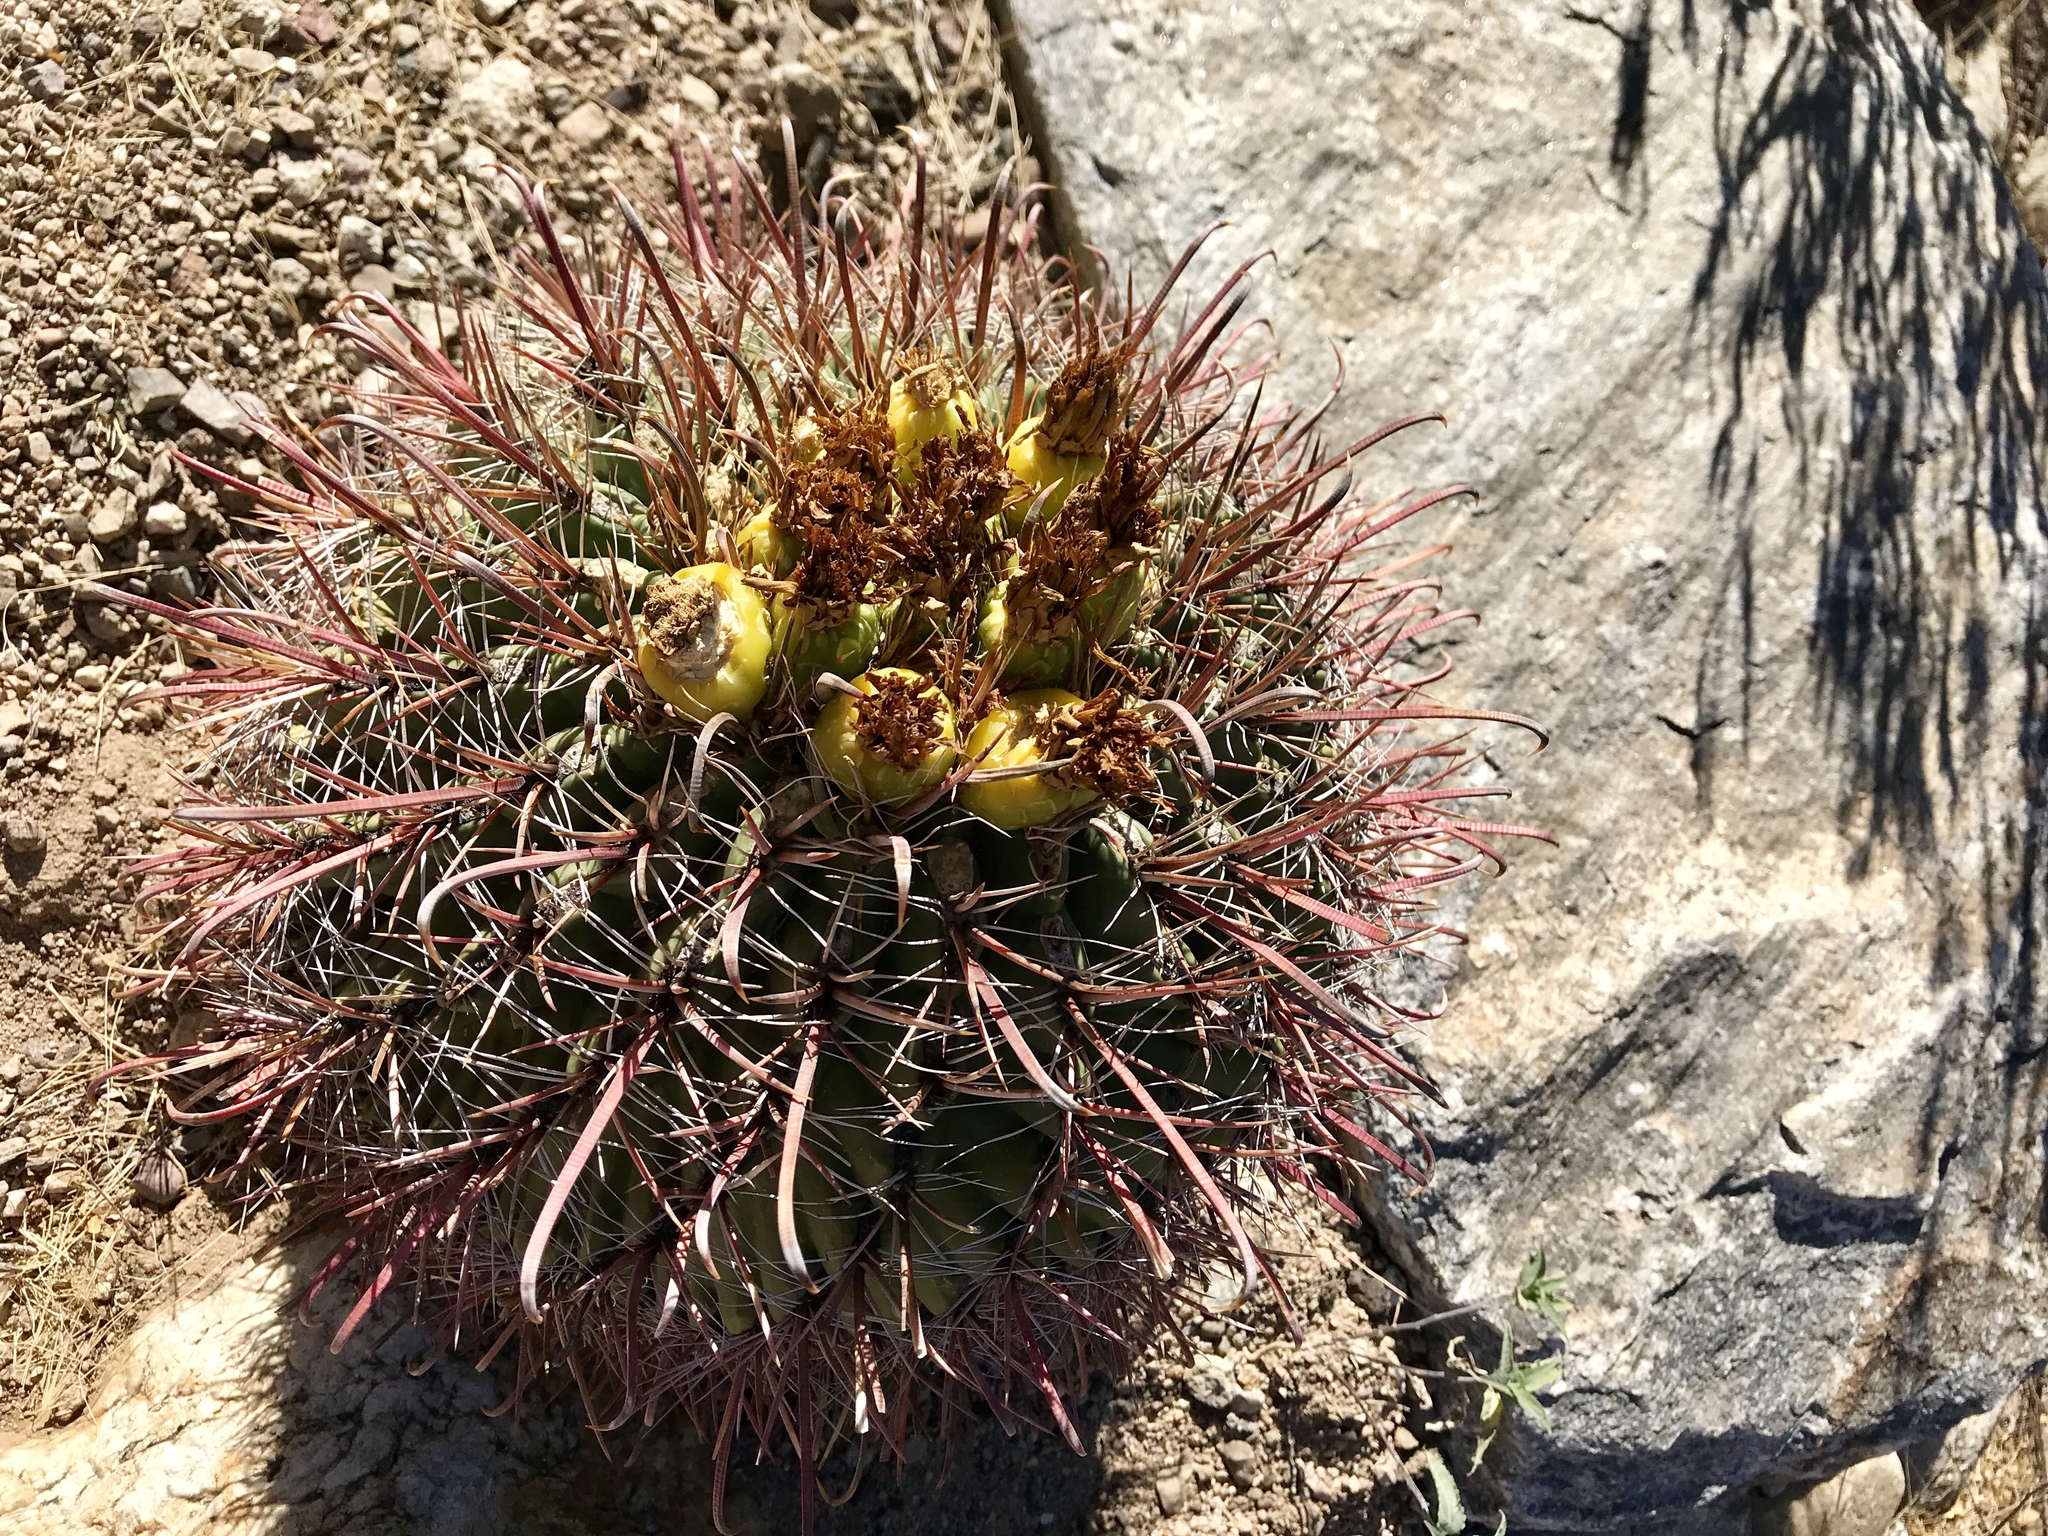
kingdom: Plantae
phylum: Tracheophyta
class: Magnoliopsida
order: Caryophyllales
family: Cactaceae
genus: Ferocactus
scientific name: Ferocactus wislizeni
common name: Candy barrel cactus
